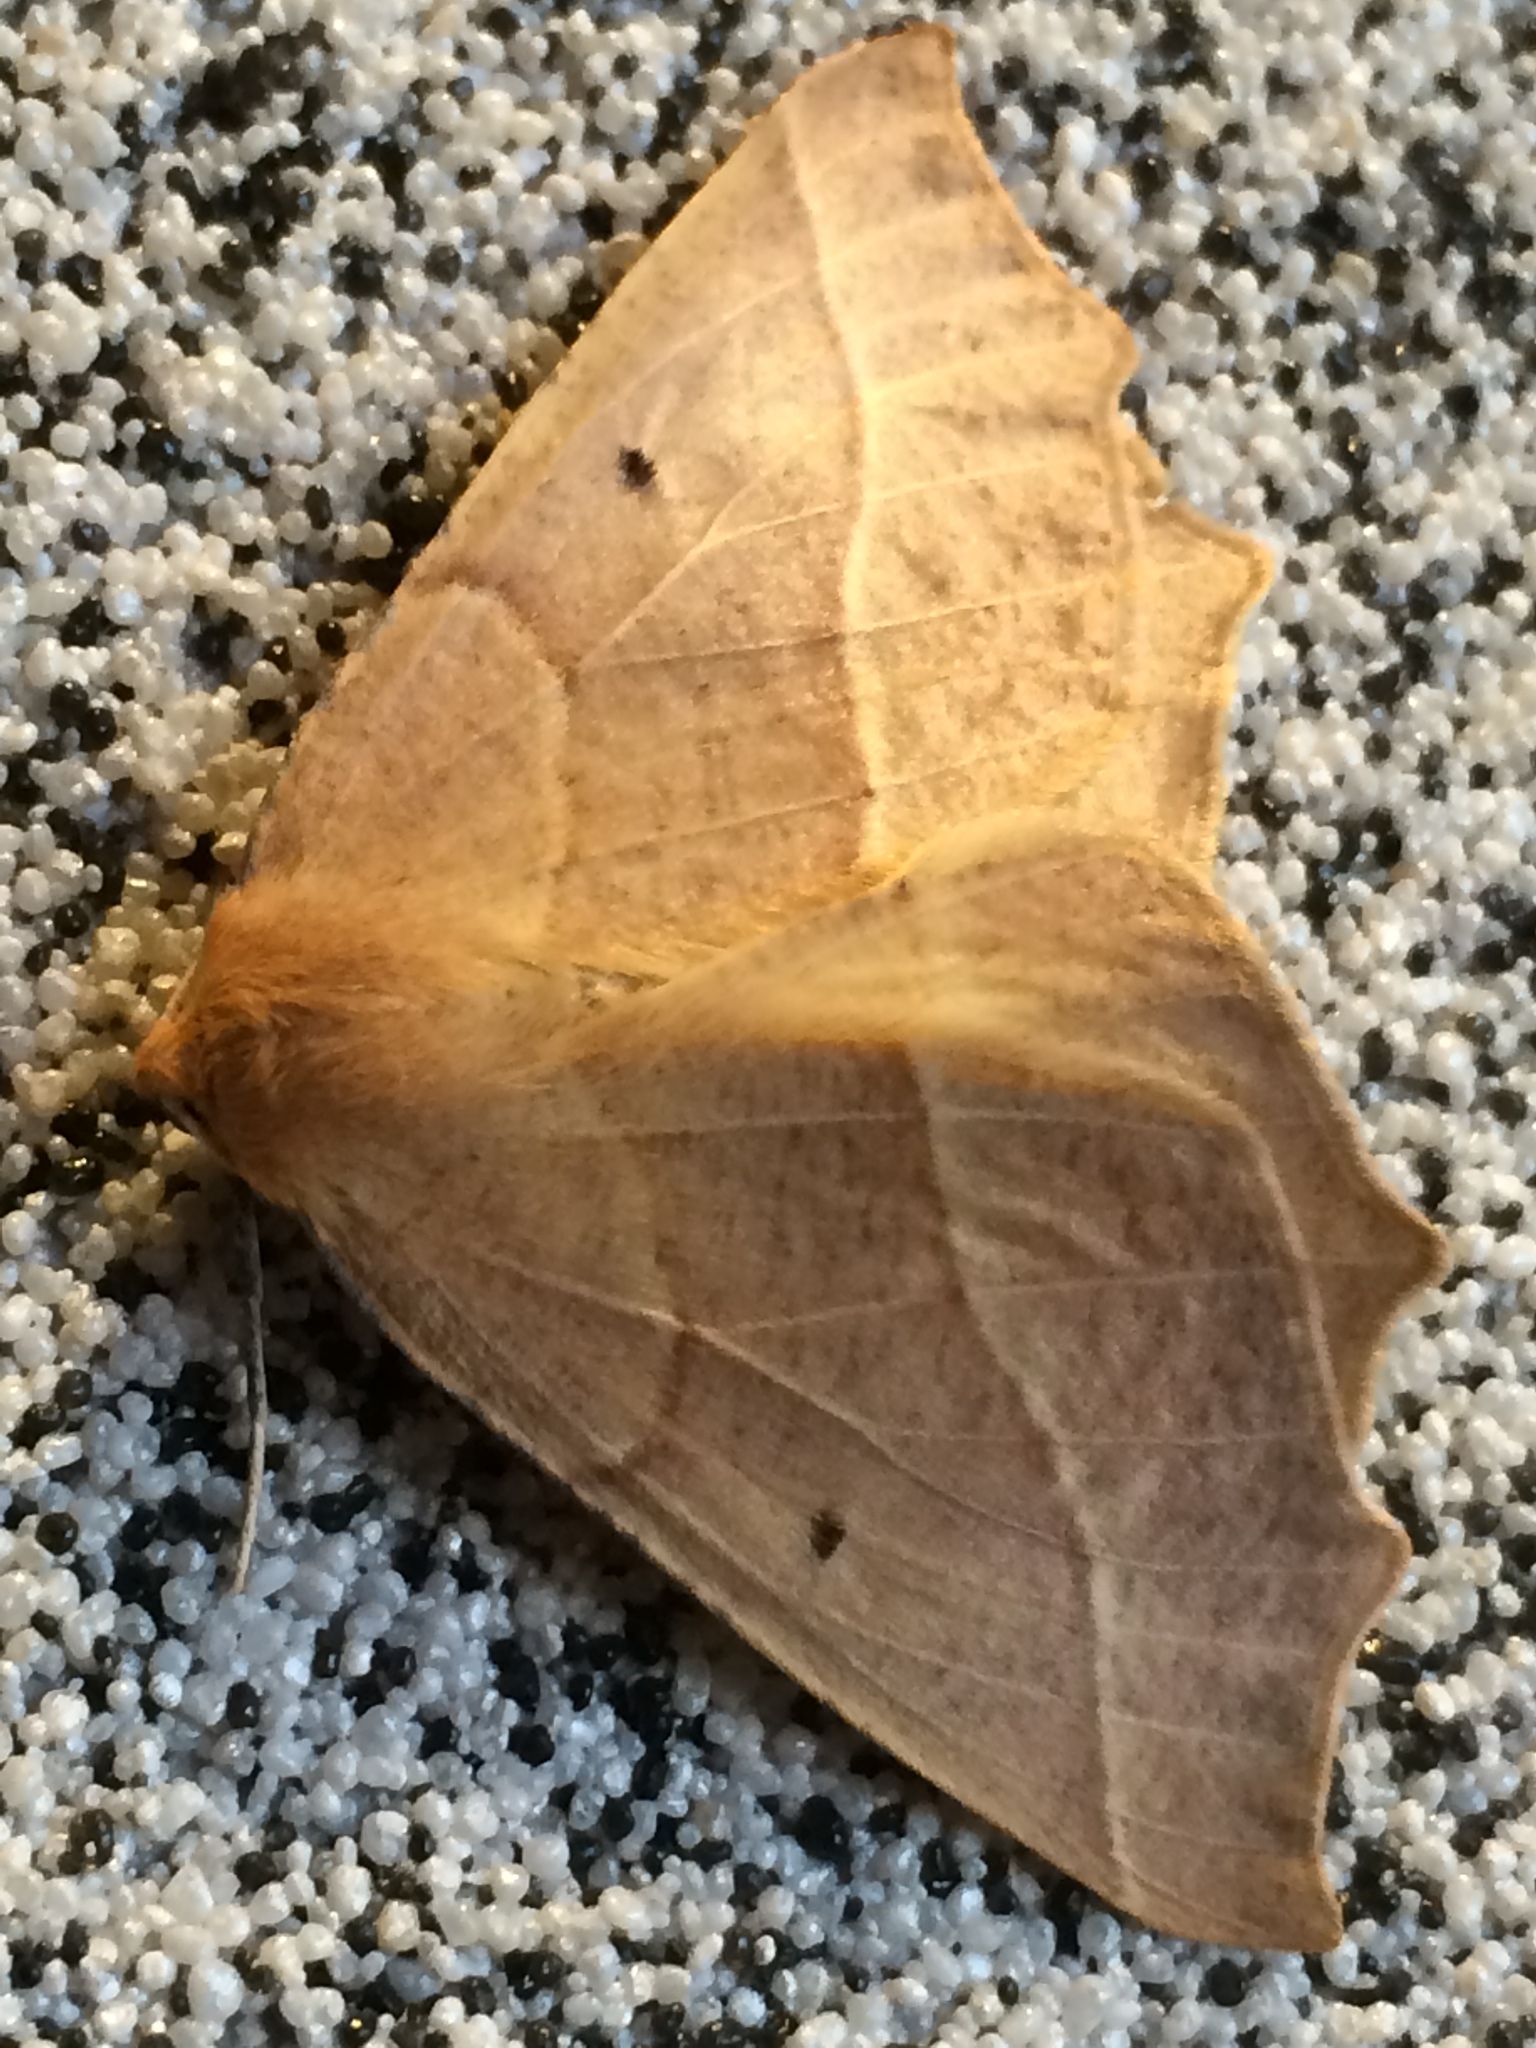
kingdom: Animalia
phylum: Arthropoda
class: Insecta
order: Lepidoptera
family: Geometridae
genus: Synaxis
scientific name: Synaxis jubararia
